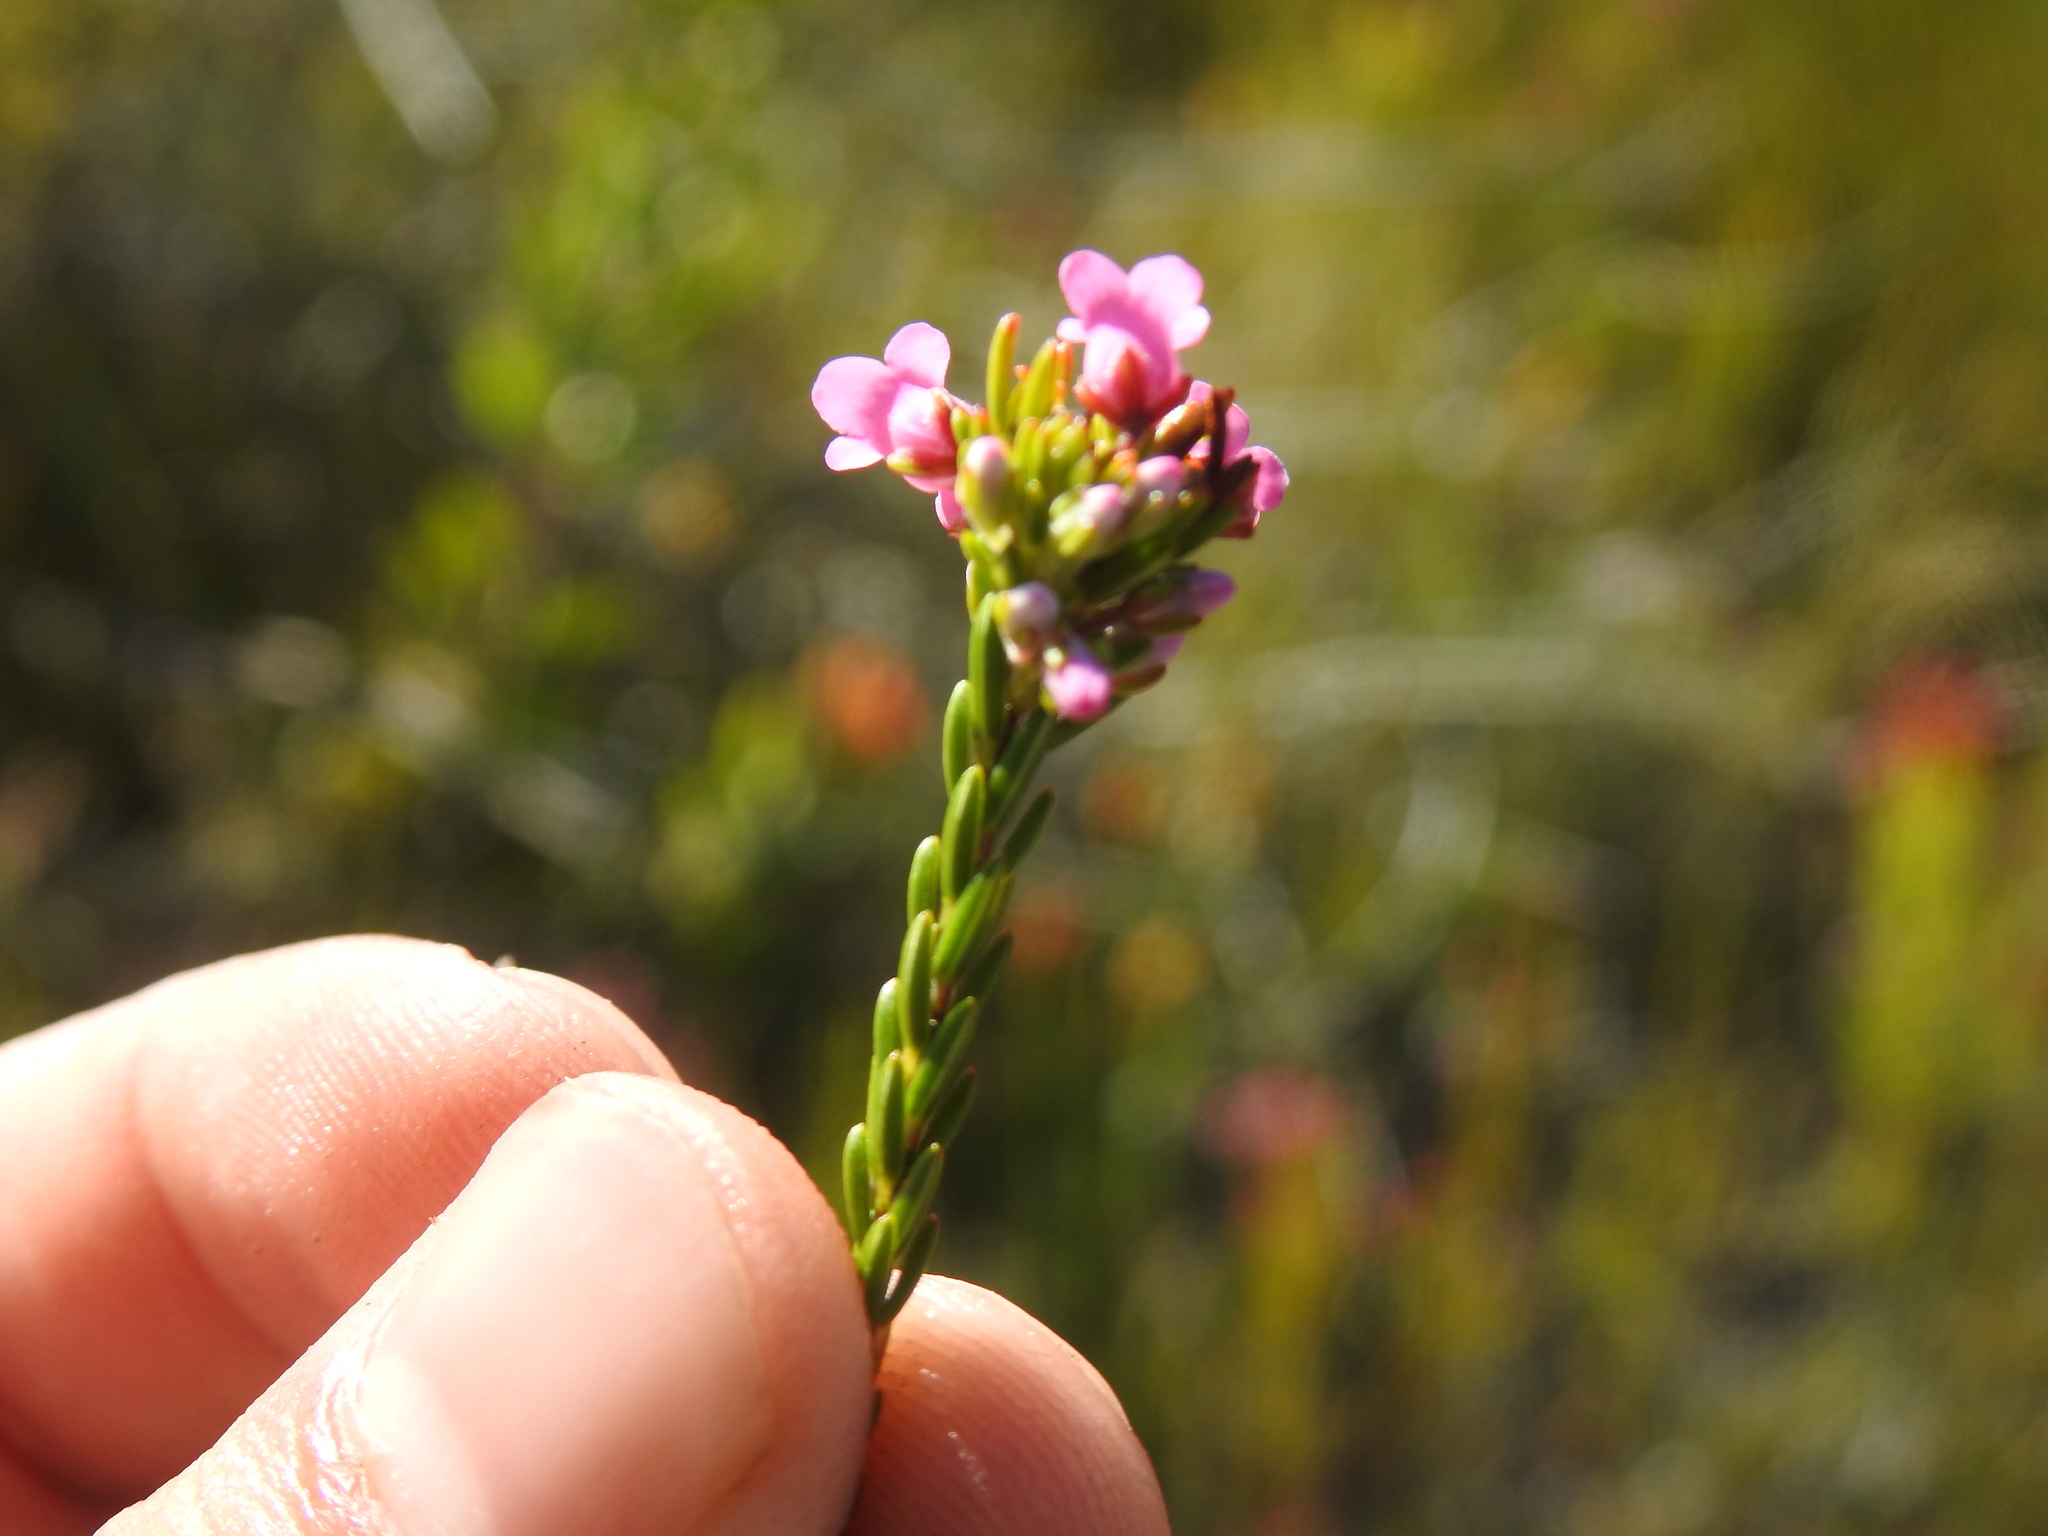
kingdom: Plantae
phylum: Tracheophyta
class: Magnoliopsida
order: Ericales
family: Ericaceae
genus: Erica
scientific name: Erica longiaristata
